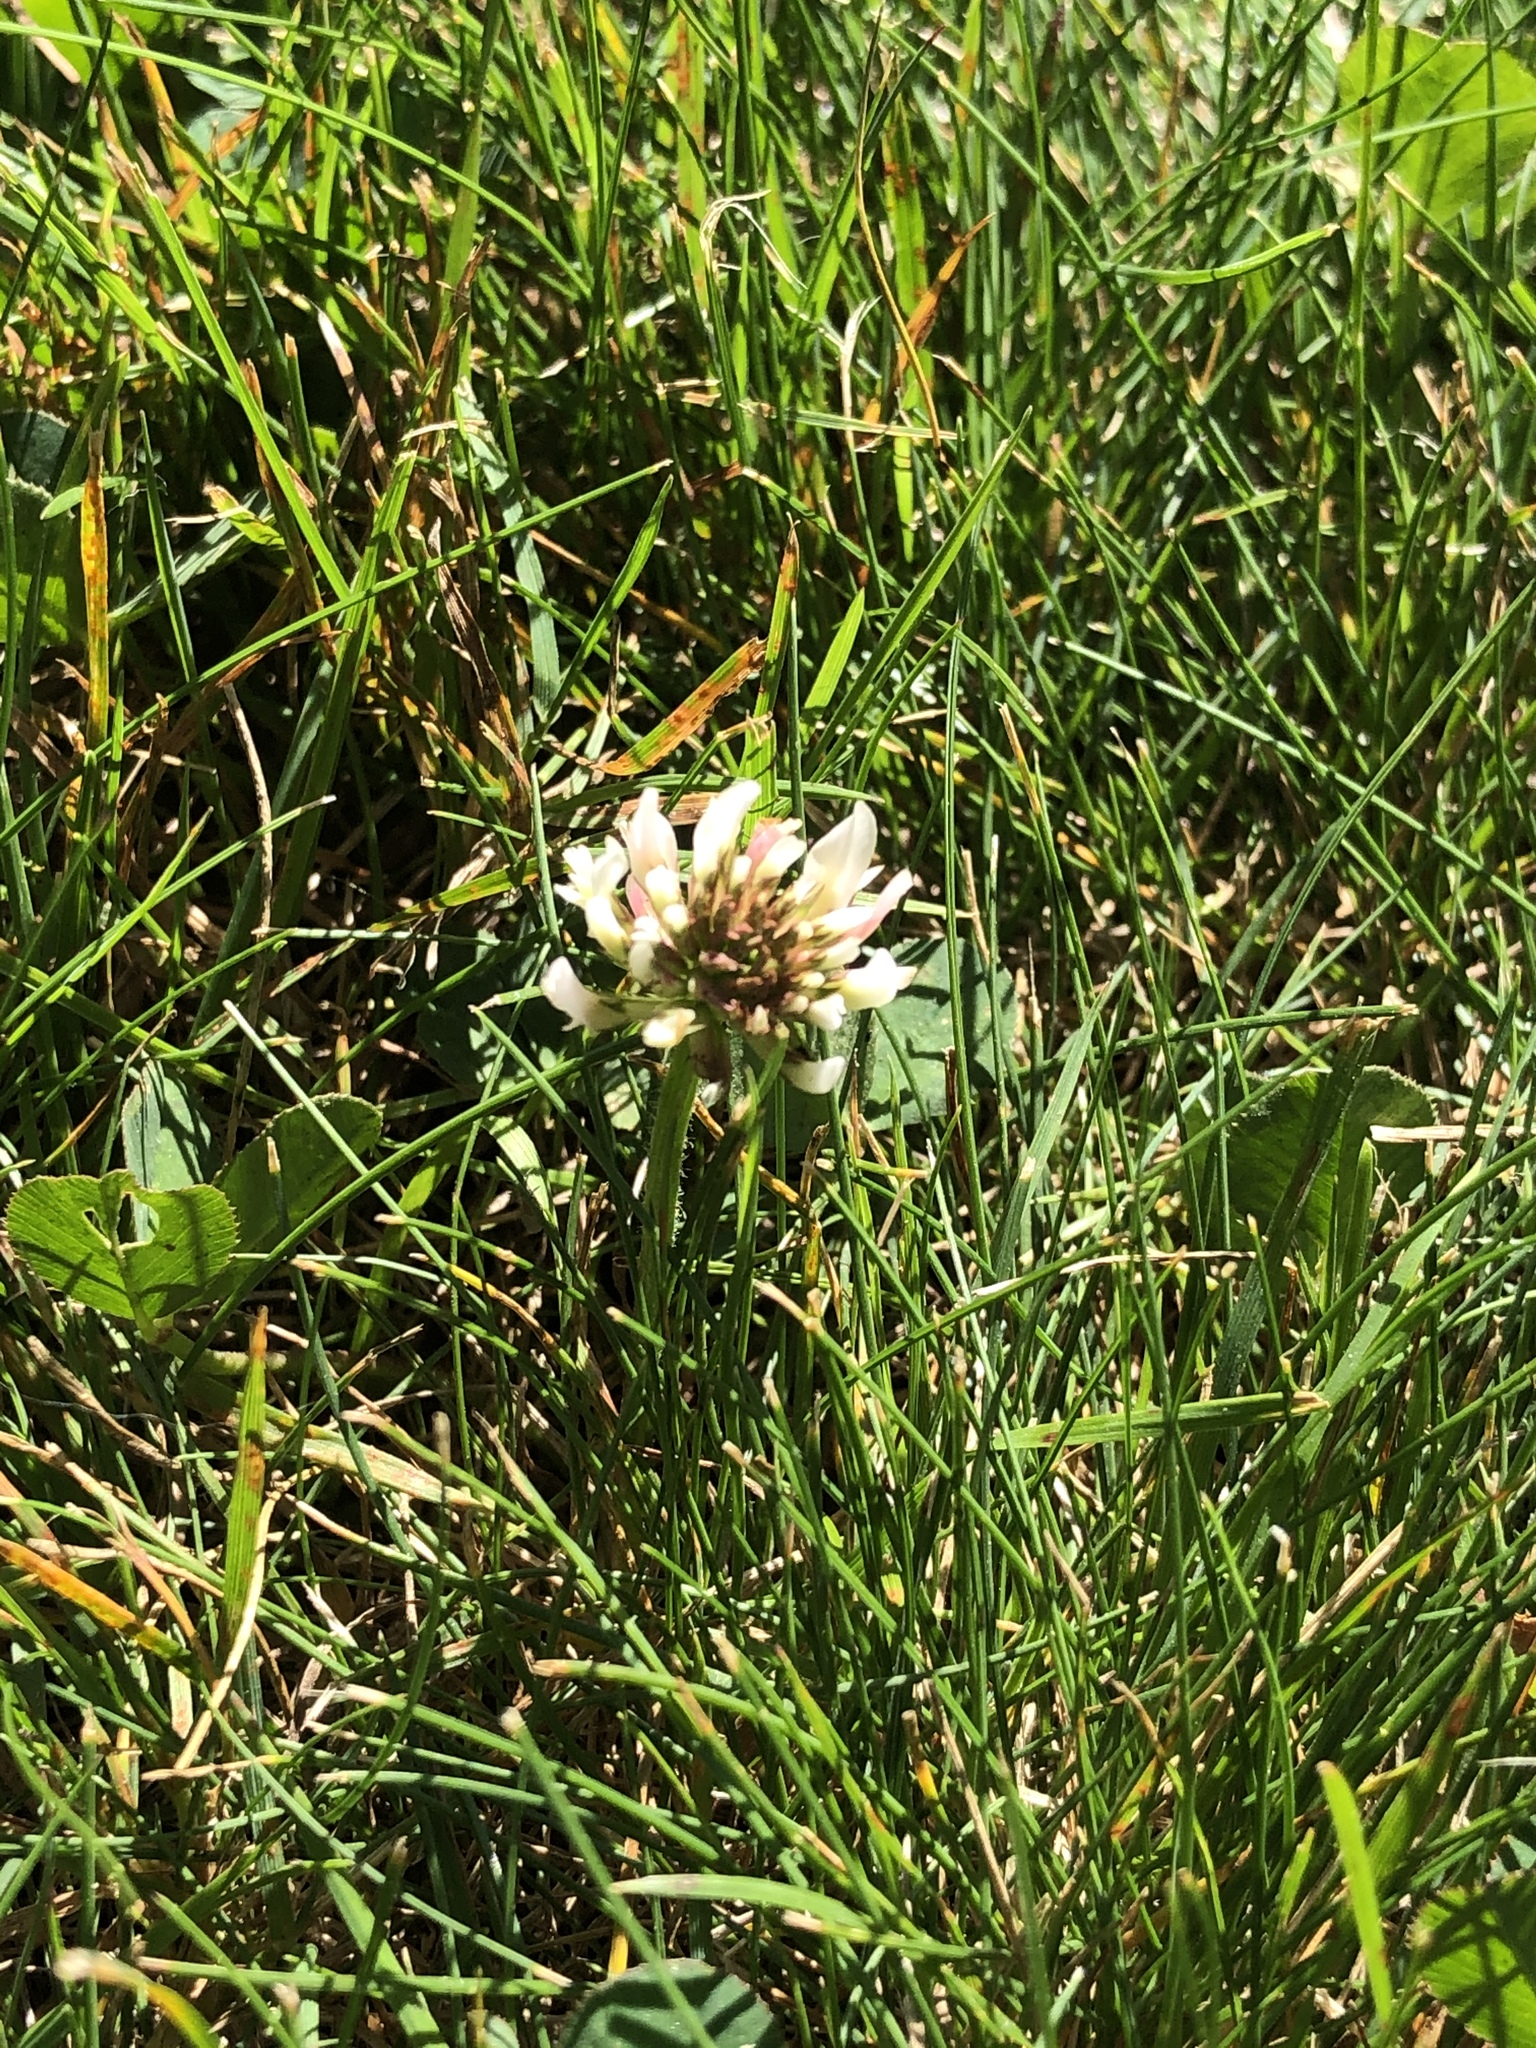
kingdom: Plantae
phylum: Tracheophyta
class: Magnoliopsida
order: Fabales
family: Fabaceae
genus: Trifolium
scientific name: Trifolium repens
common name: White clover
